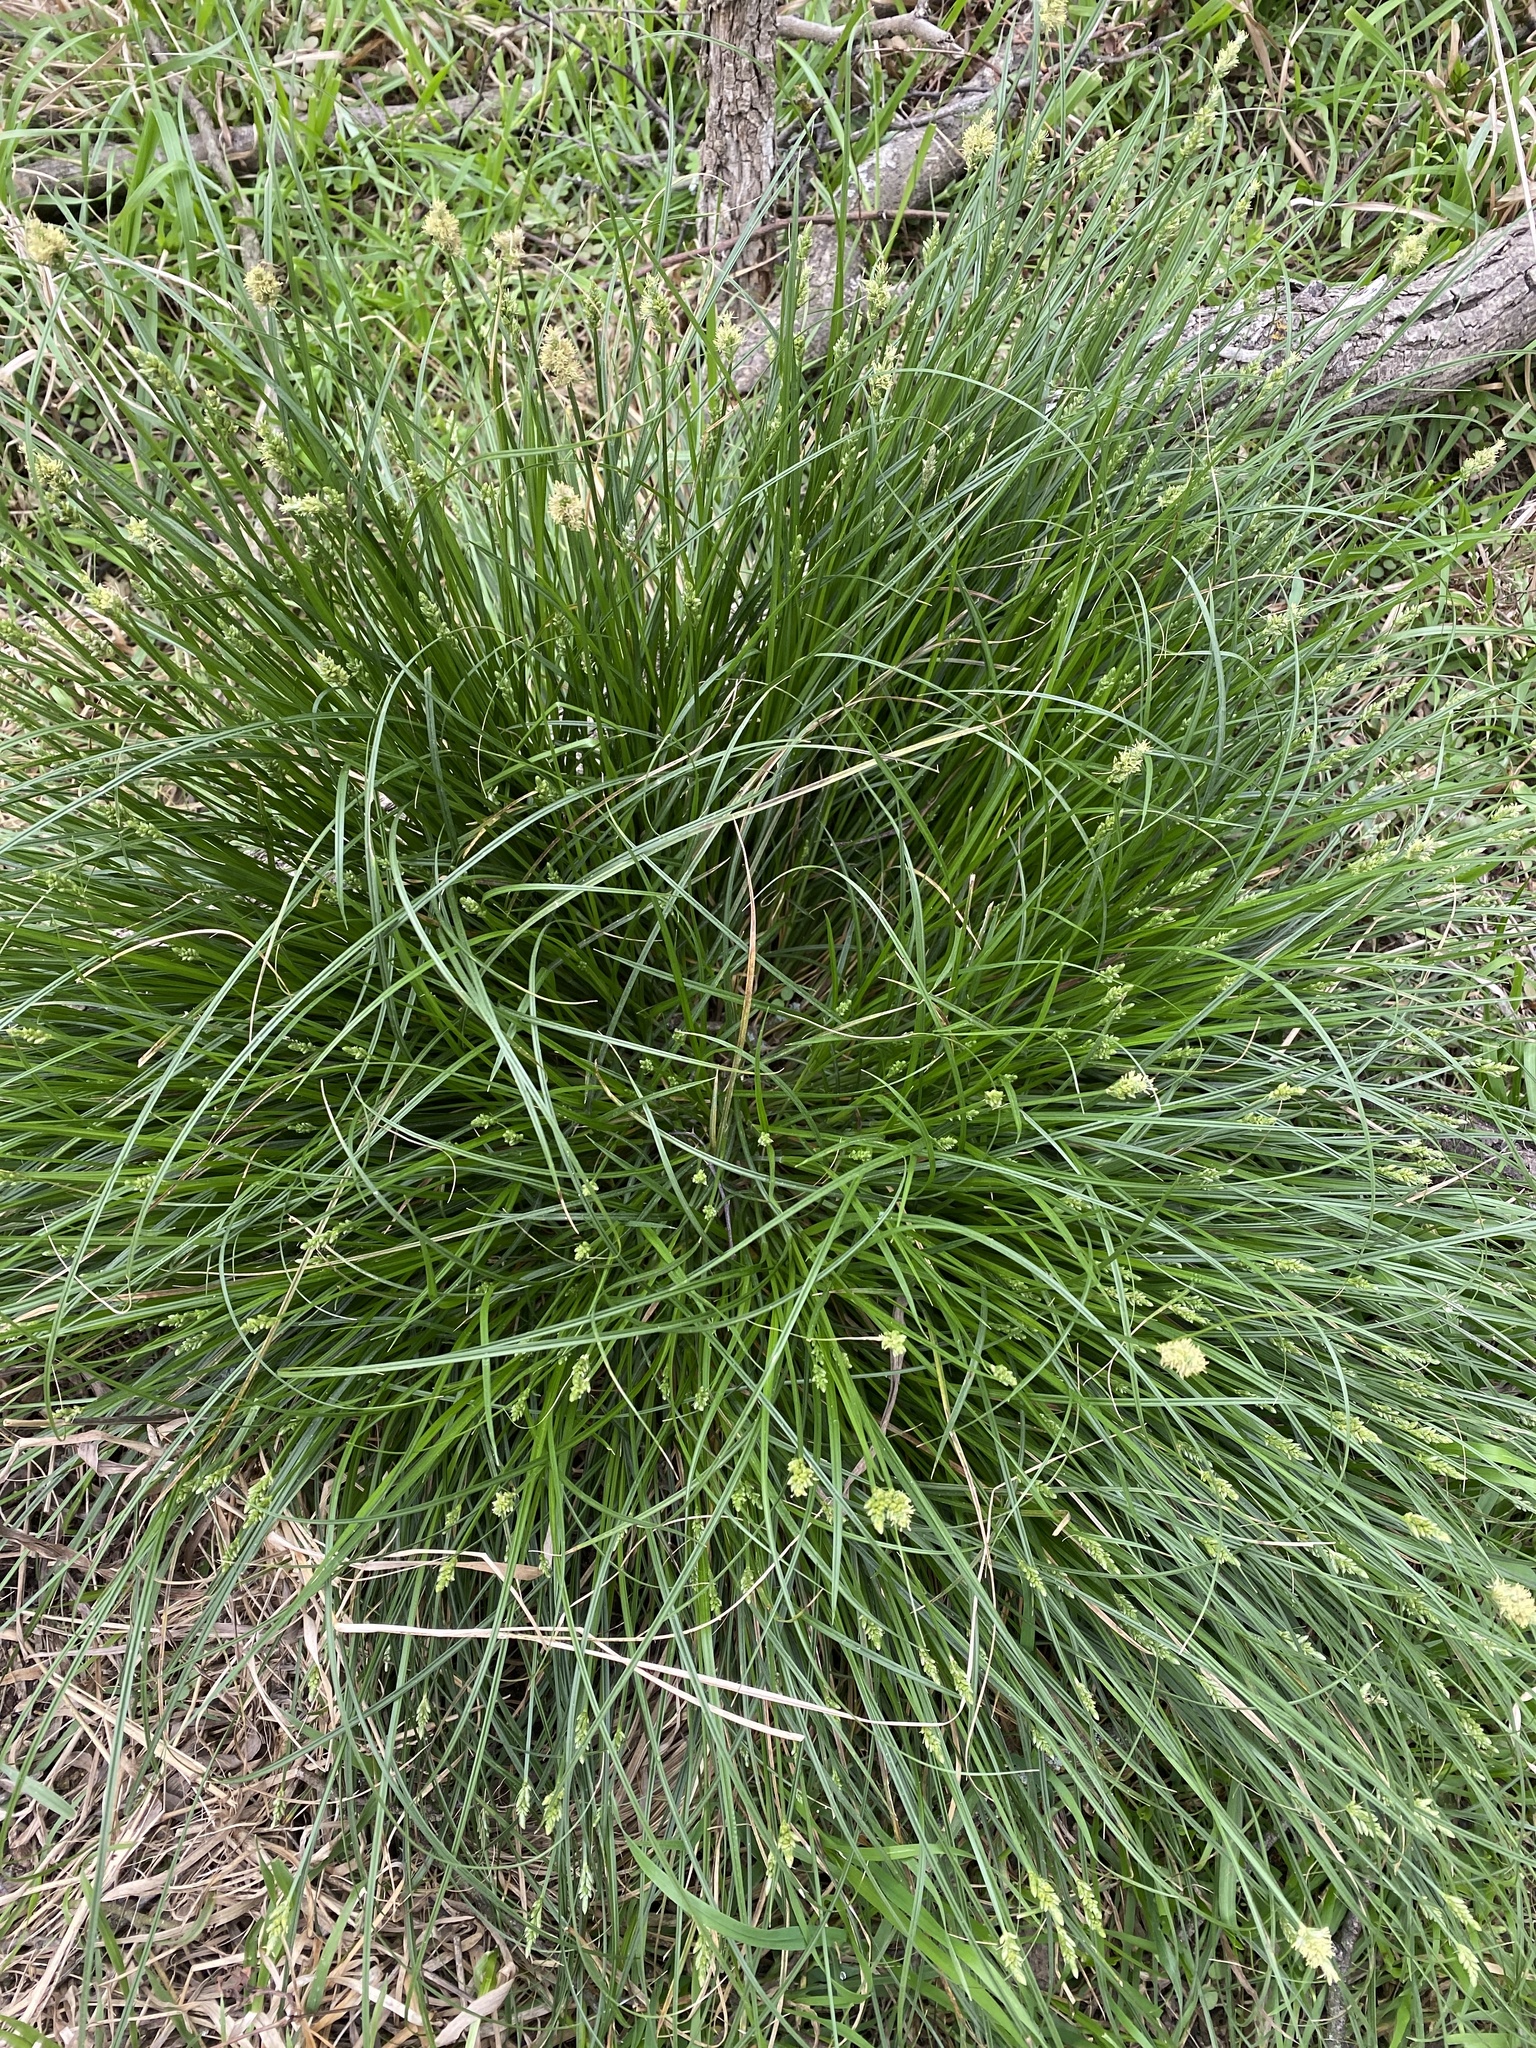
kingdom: Plantae
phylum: Tracheophyta
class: Liliopsida
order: Poales
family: Cyperaceae
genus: Carex
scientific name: Carex planostachys
